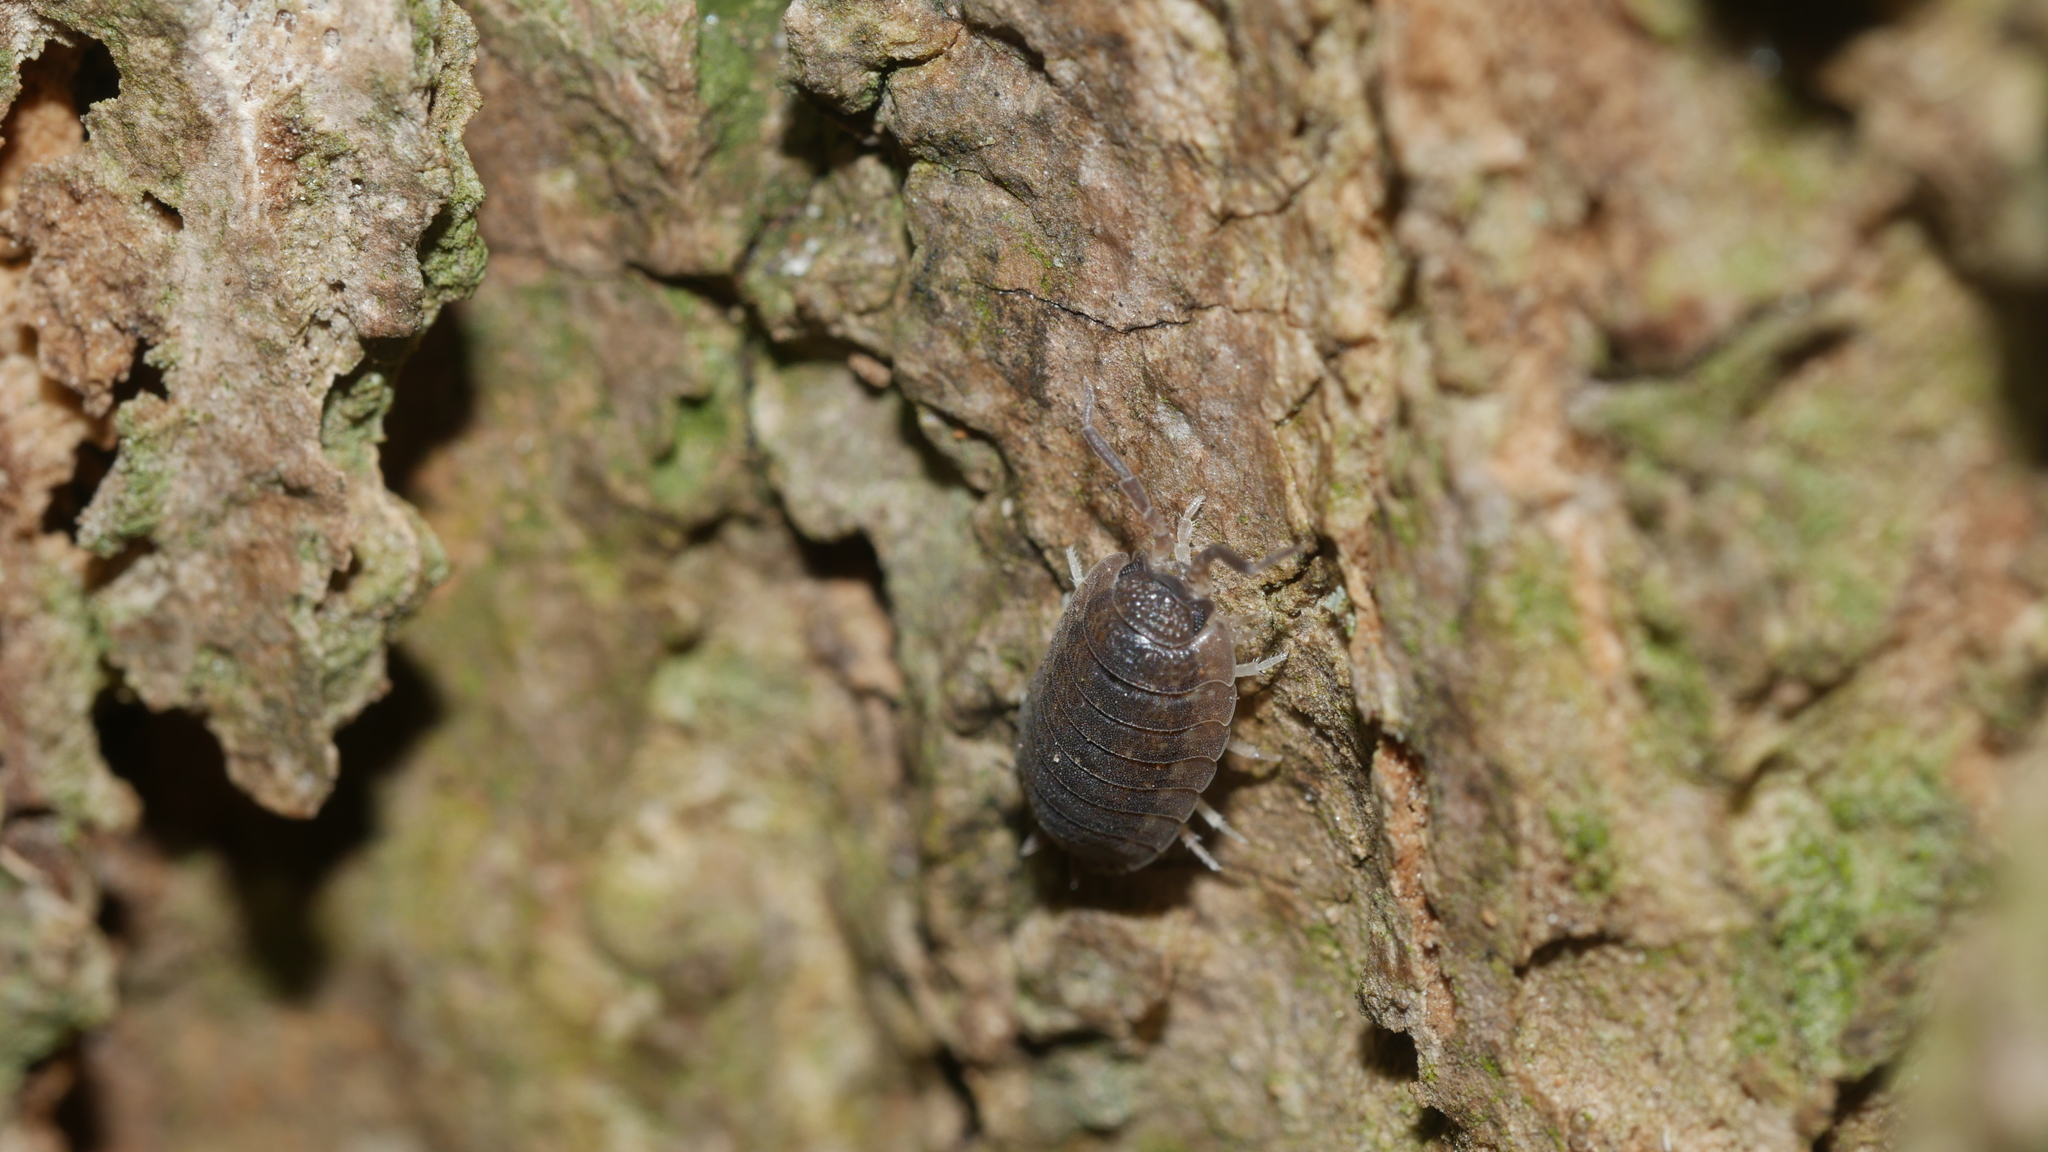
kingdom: Animalia
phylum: Arthropoda
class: Malacostraca
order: Isopoda
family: Porcellionidae
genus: Porcellio
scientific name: Porcellio scaber
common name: Common rough woodlouse
